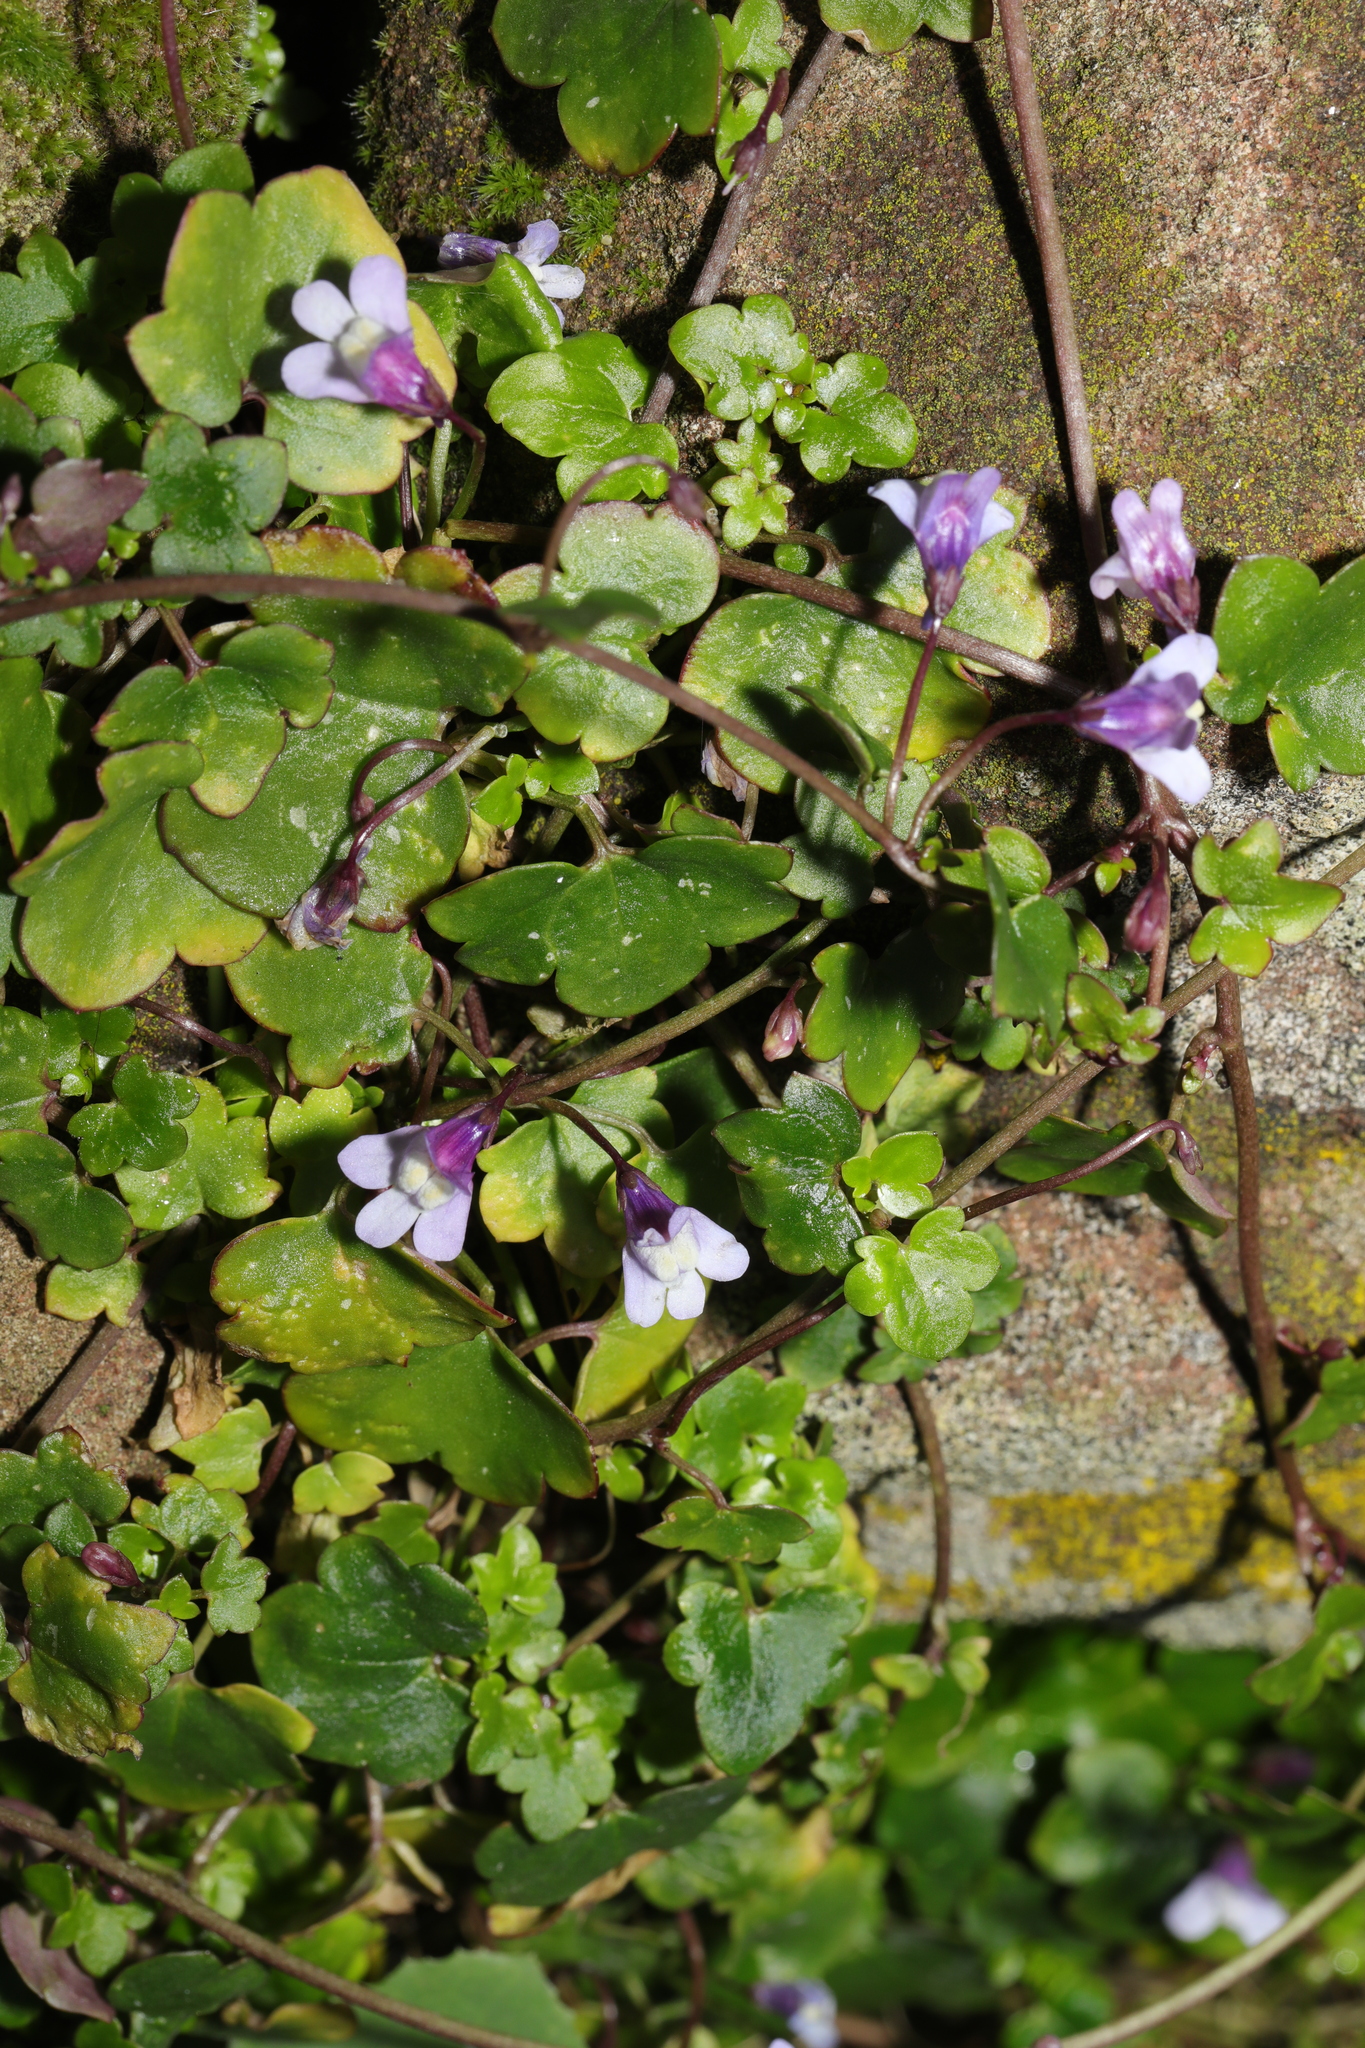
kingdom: Plantae
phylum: Tracheophyta
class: Magnoliopsida
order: Lamiales
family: Plantaginaceae
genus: Cymbalaria
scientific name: Cymbalaria muralis
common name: Ivy-leaved toadflax
